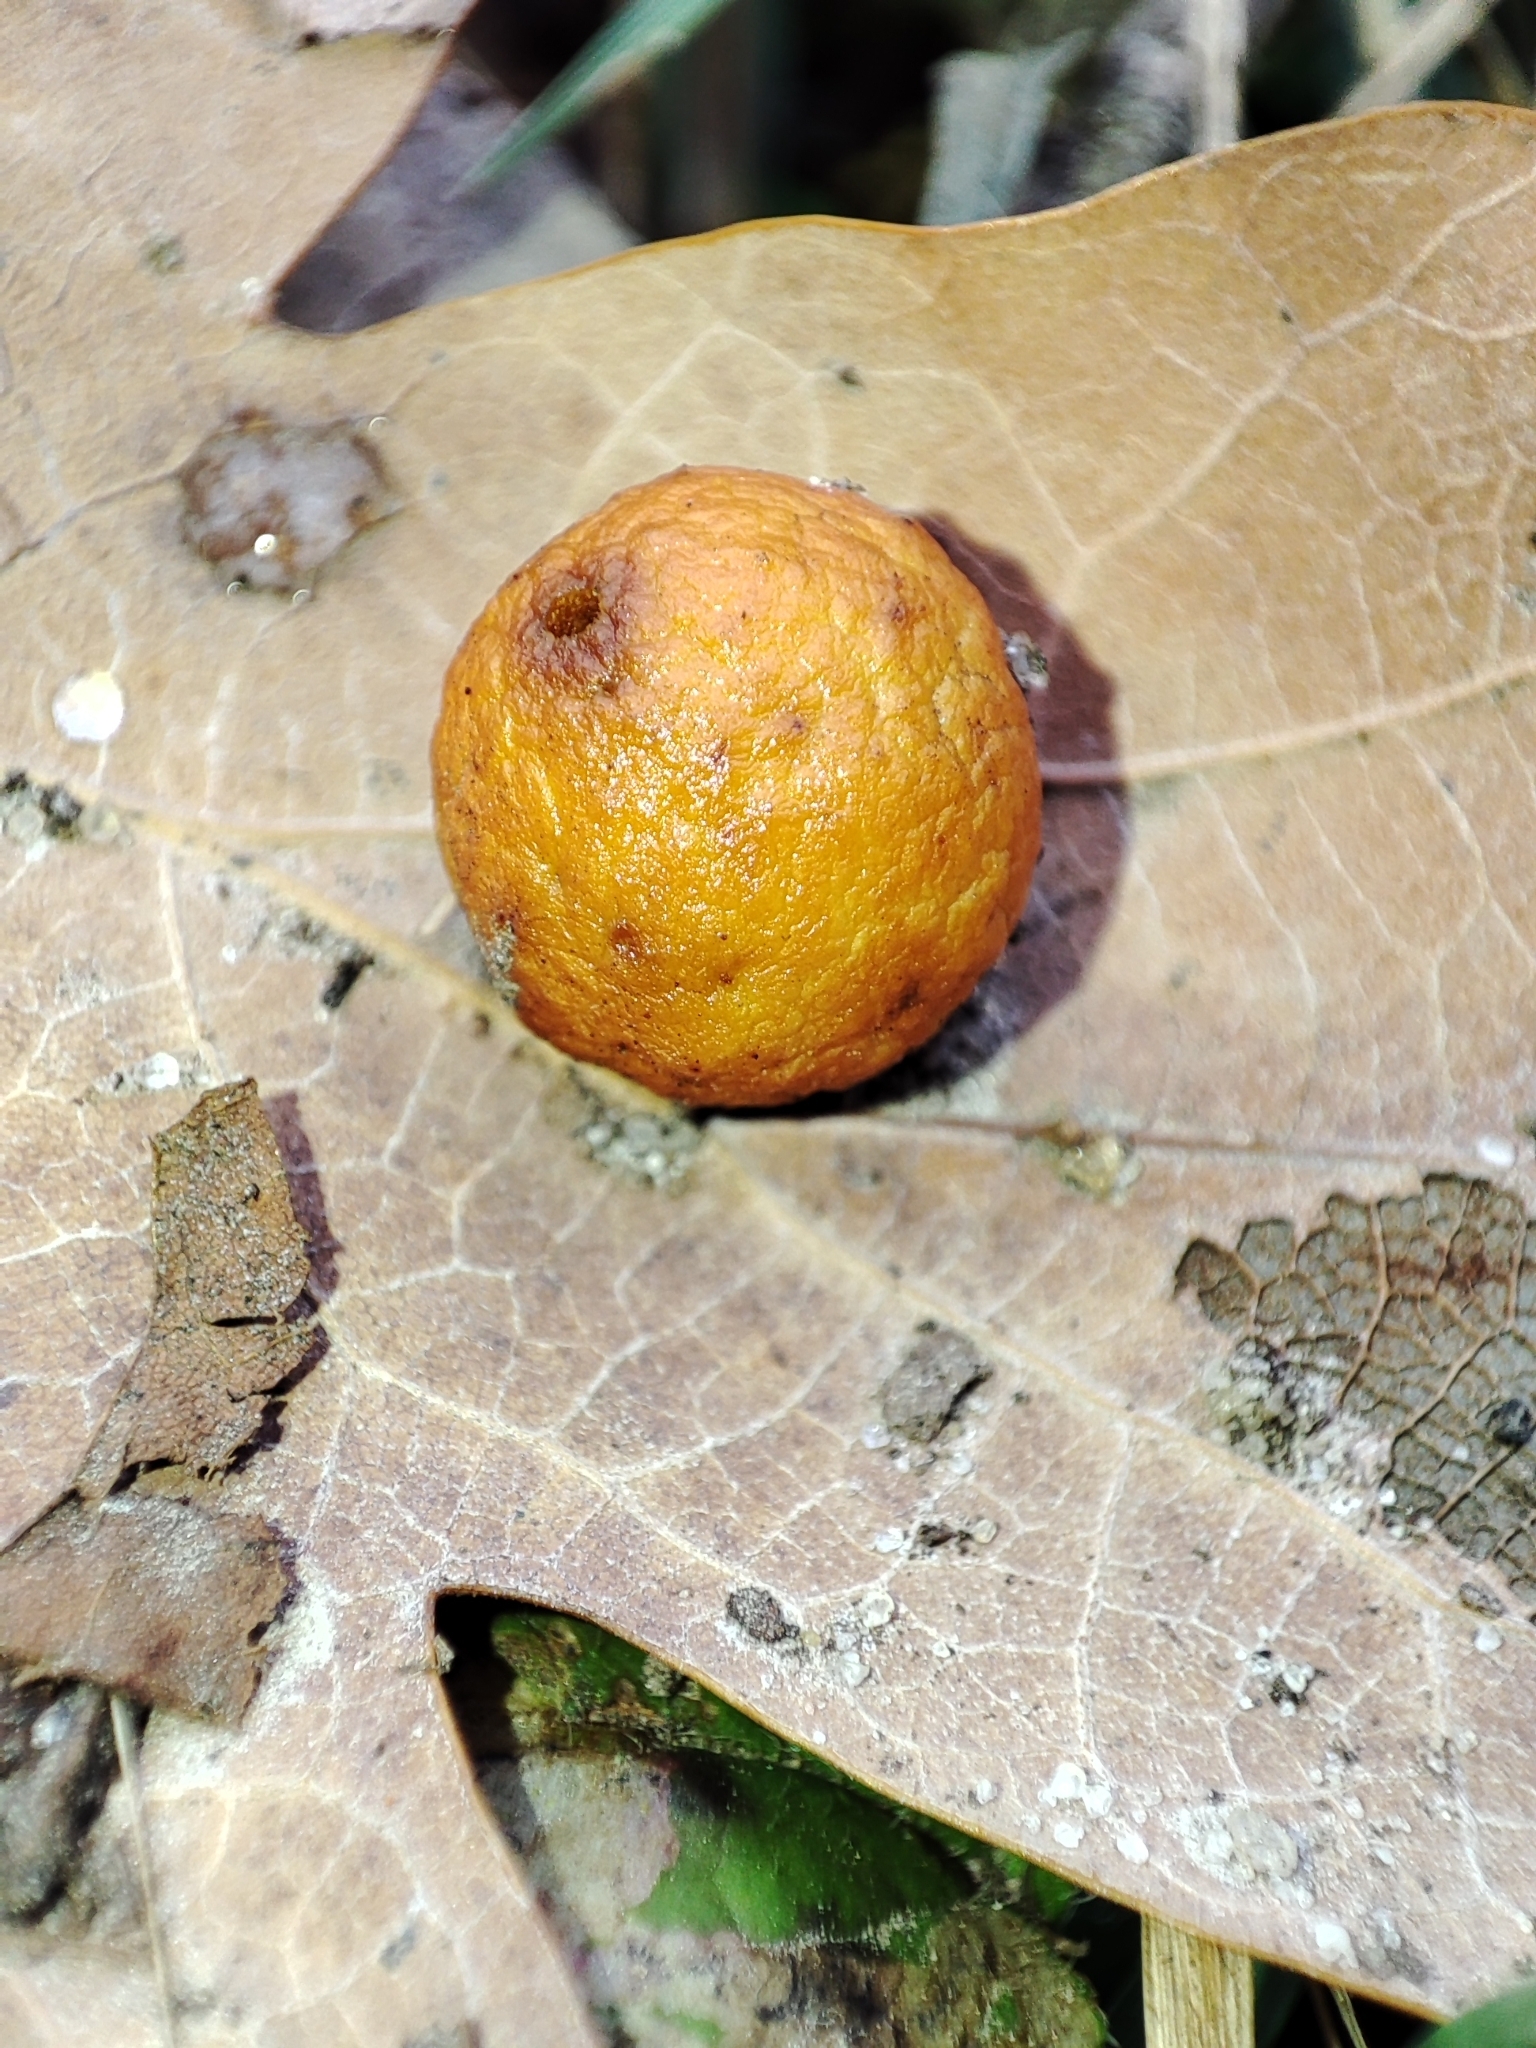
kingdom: Animalia
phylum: Arthropoda
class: Insecta
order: Hymenoptera
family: Cynipidae
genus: Cynips
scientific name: Cynips quercusfolii
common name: Cherry gall
